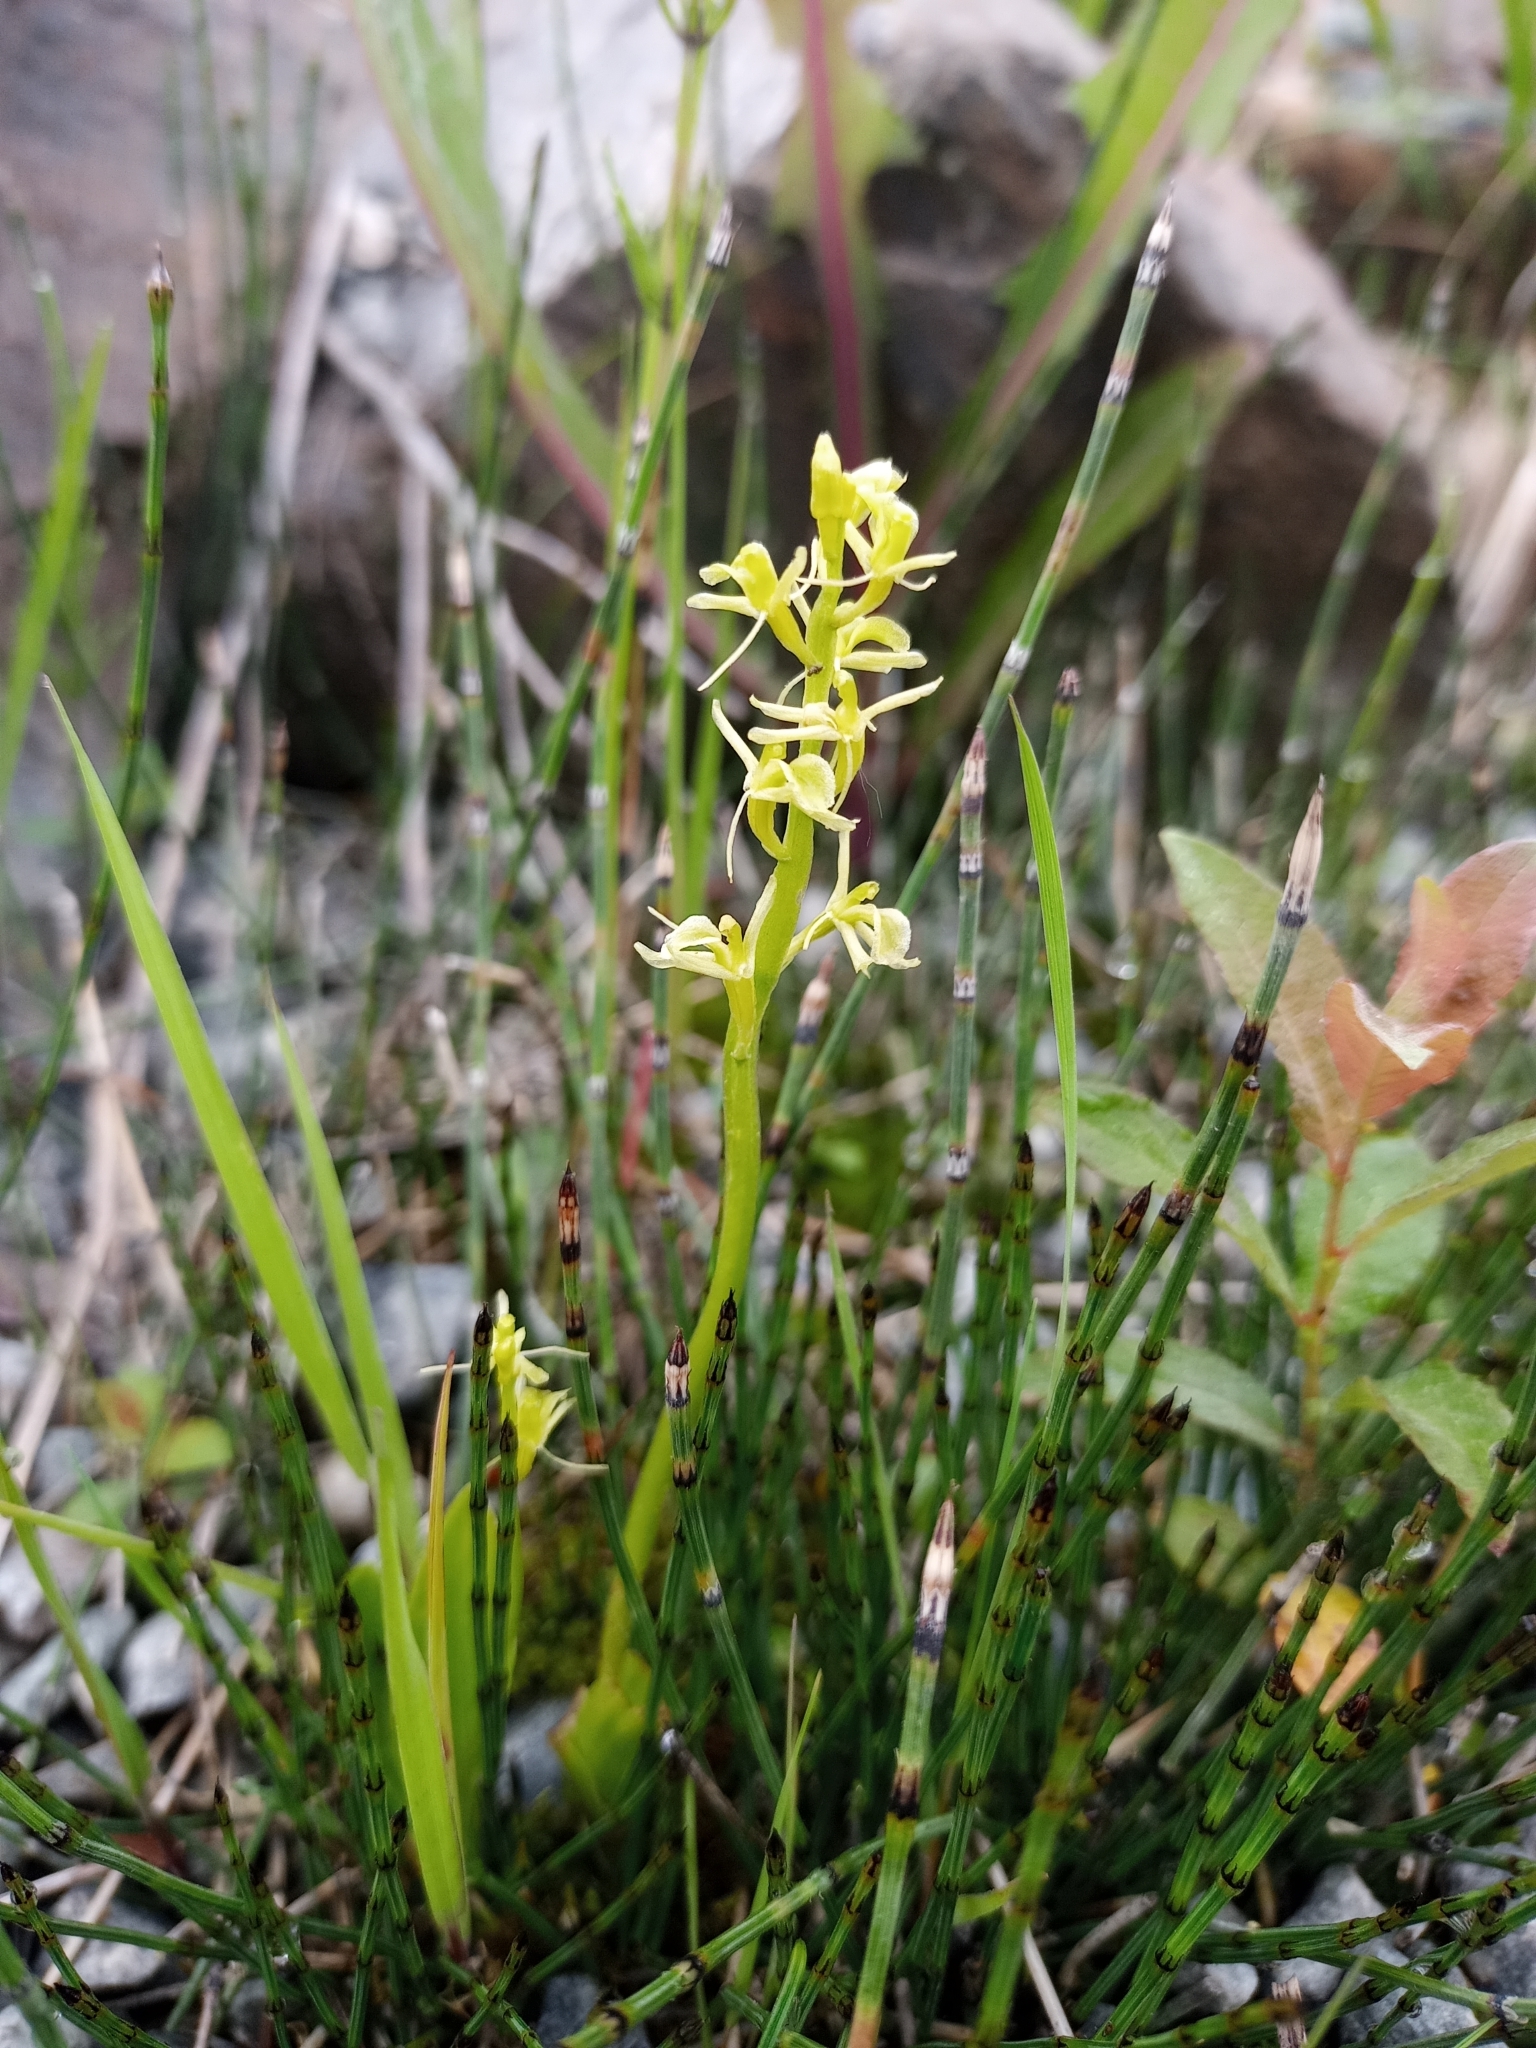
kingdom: Animalia
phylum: Arthropoda
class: Insecta
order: Coleoptera
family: Curculionidae
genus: Liparis
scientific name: Liparis loeselii
